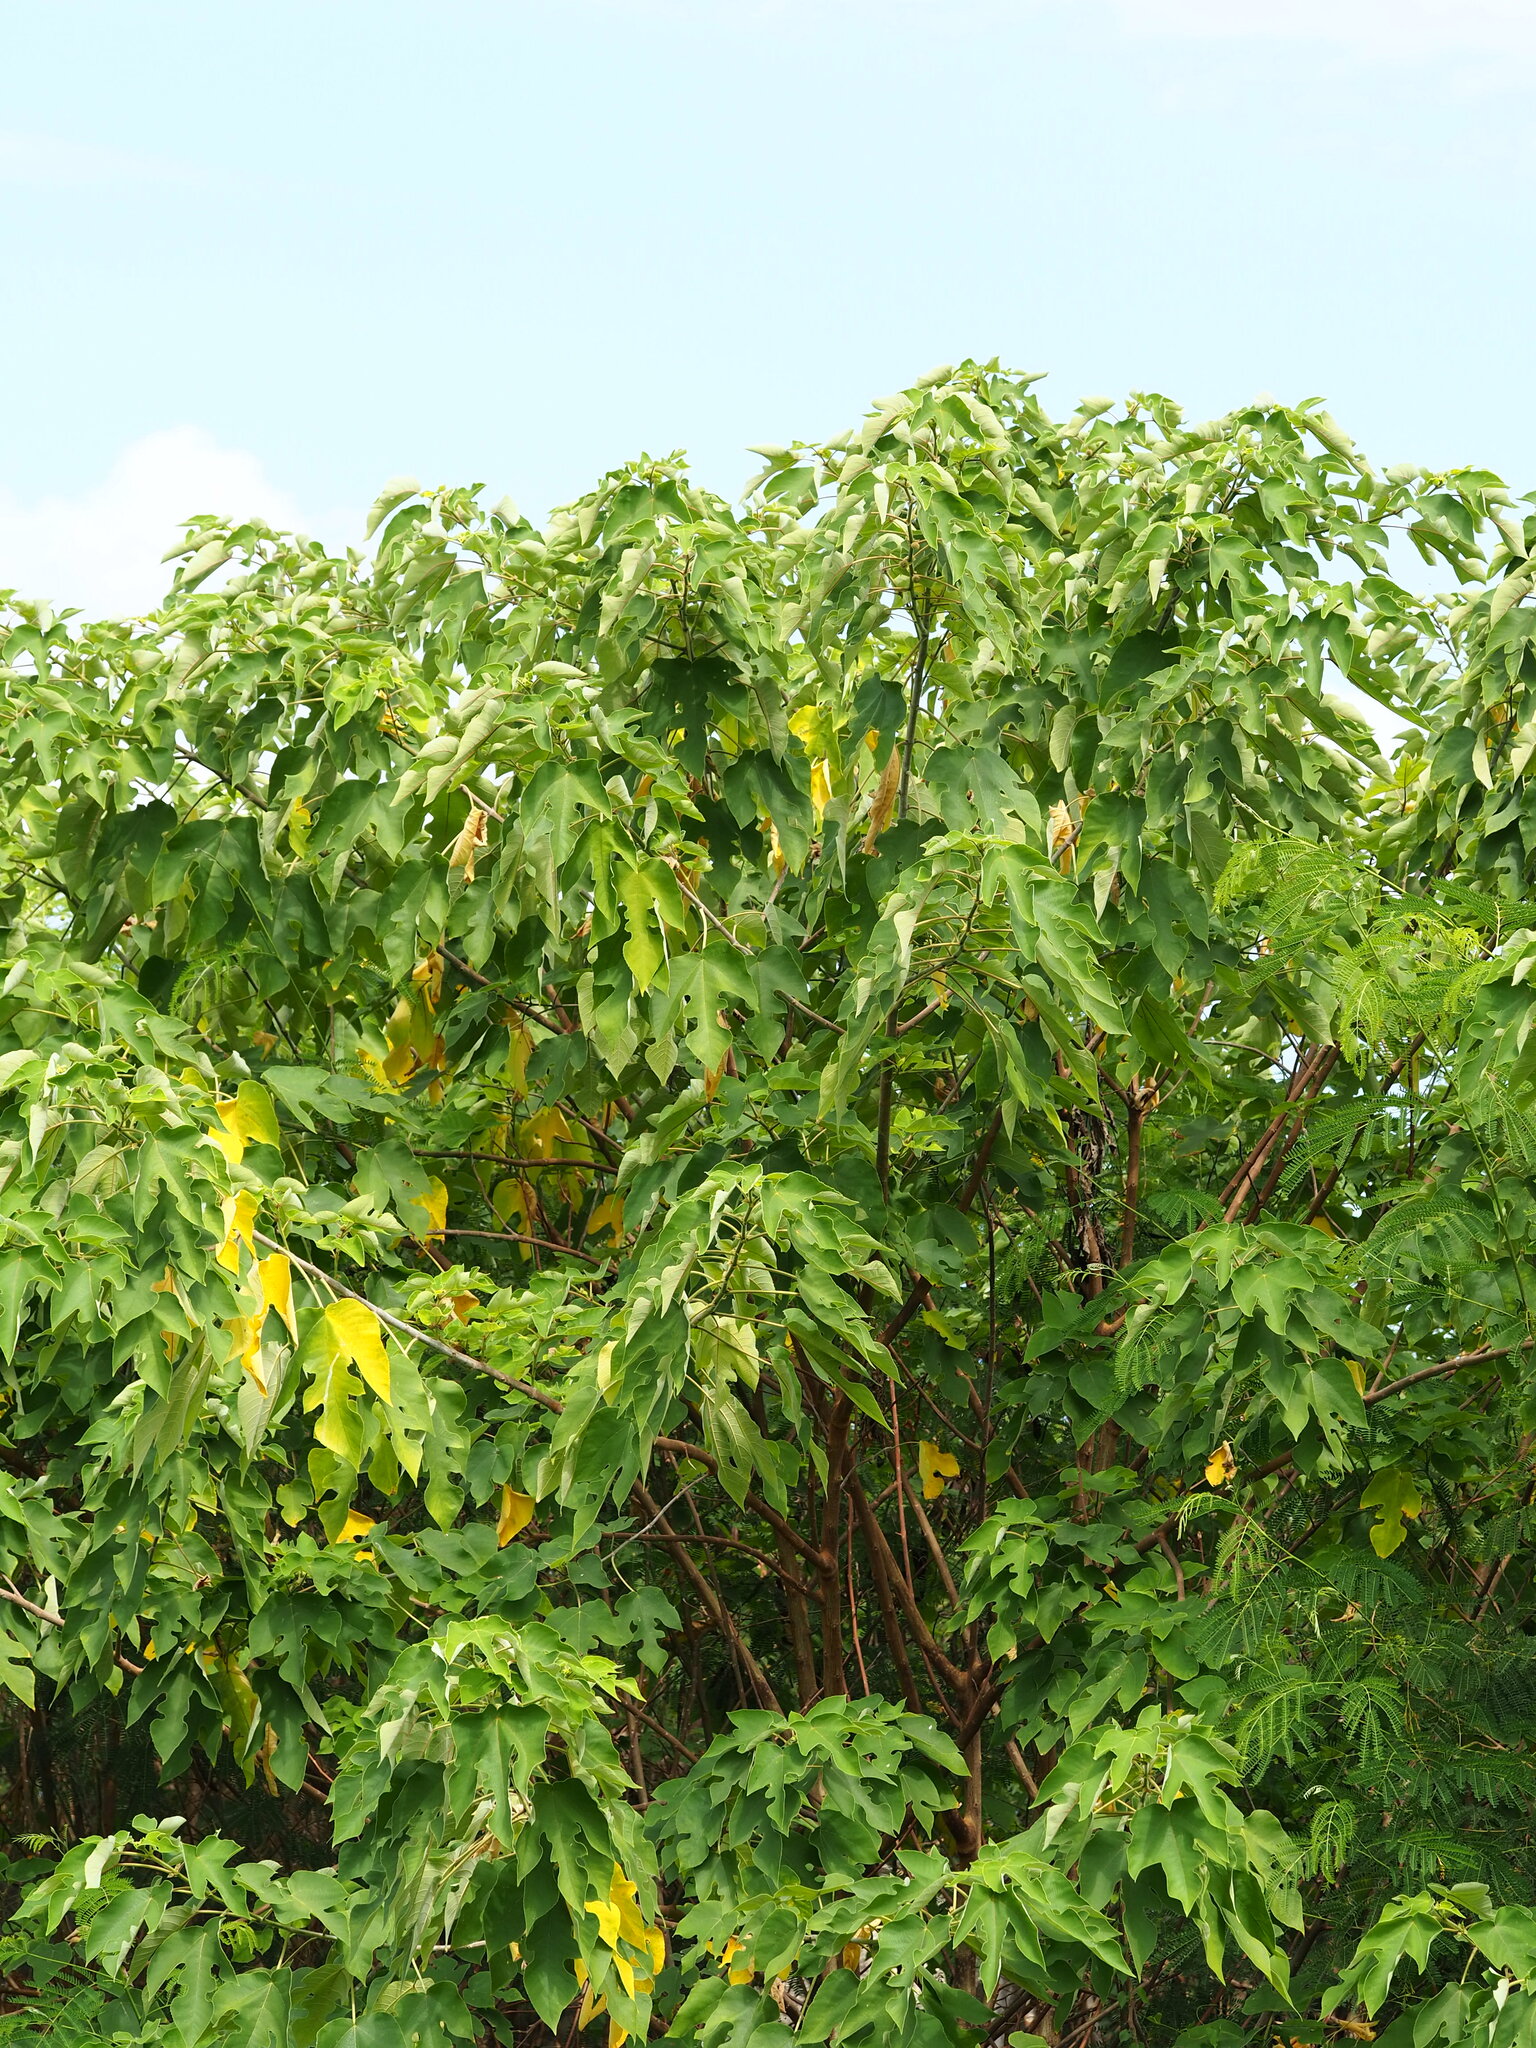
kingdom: Plantae
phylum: Tracheophyta
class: Magnoliopsida
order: Rosales
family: Moraceae
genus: Broussonetia
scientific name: Broussonetia papyrifera
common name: Paper mulberry
